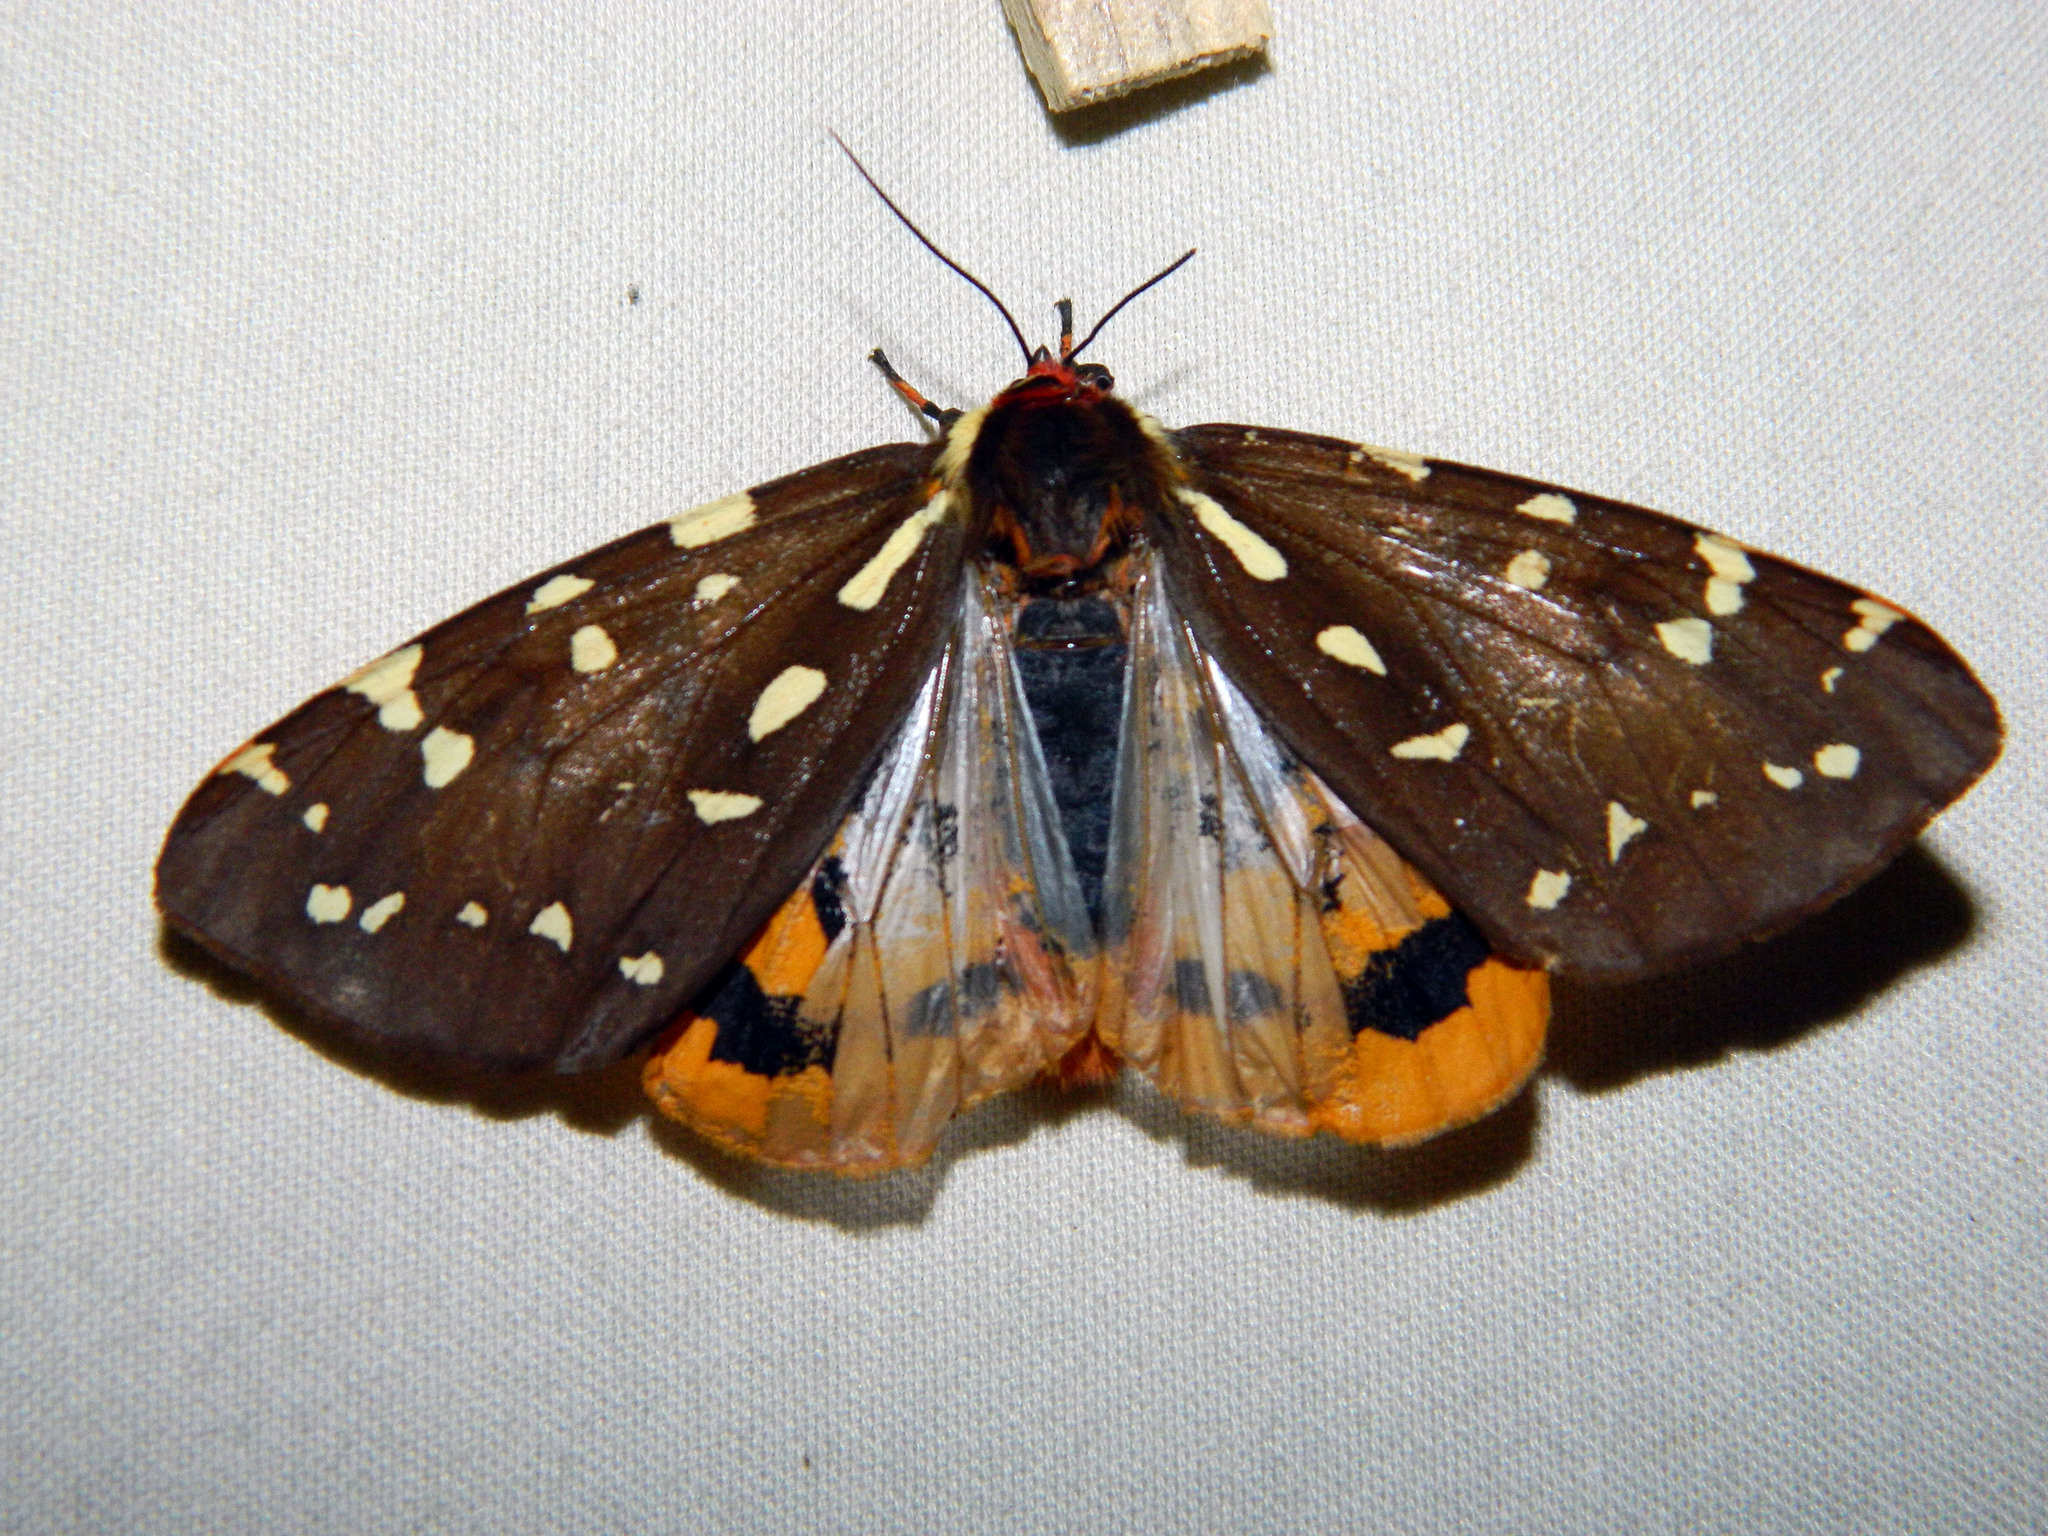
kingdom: Animalia
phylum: Arthropoda
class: Insecta
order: Lepidoptera
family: Erebidae
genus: Arctia
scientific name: Arctia parthenos
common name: St. lawrence tiger moth
